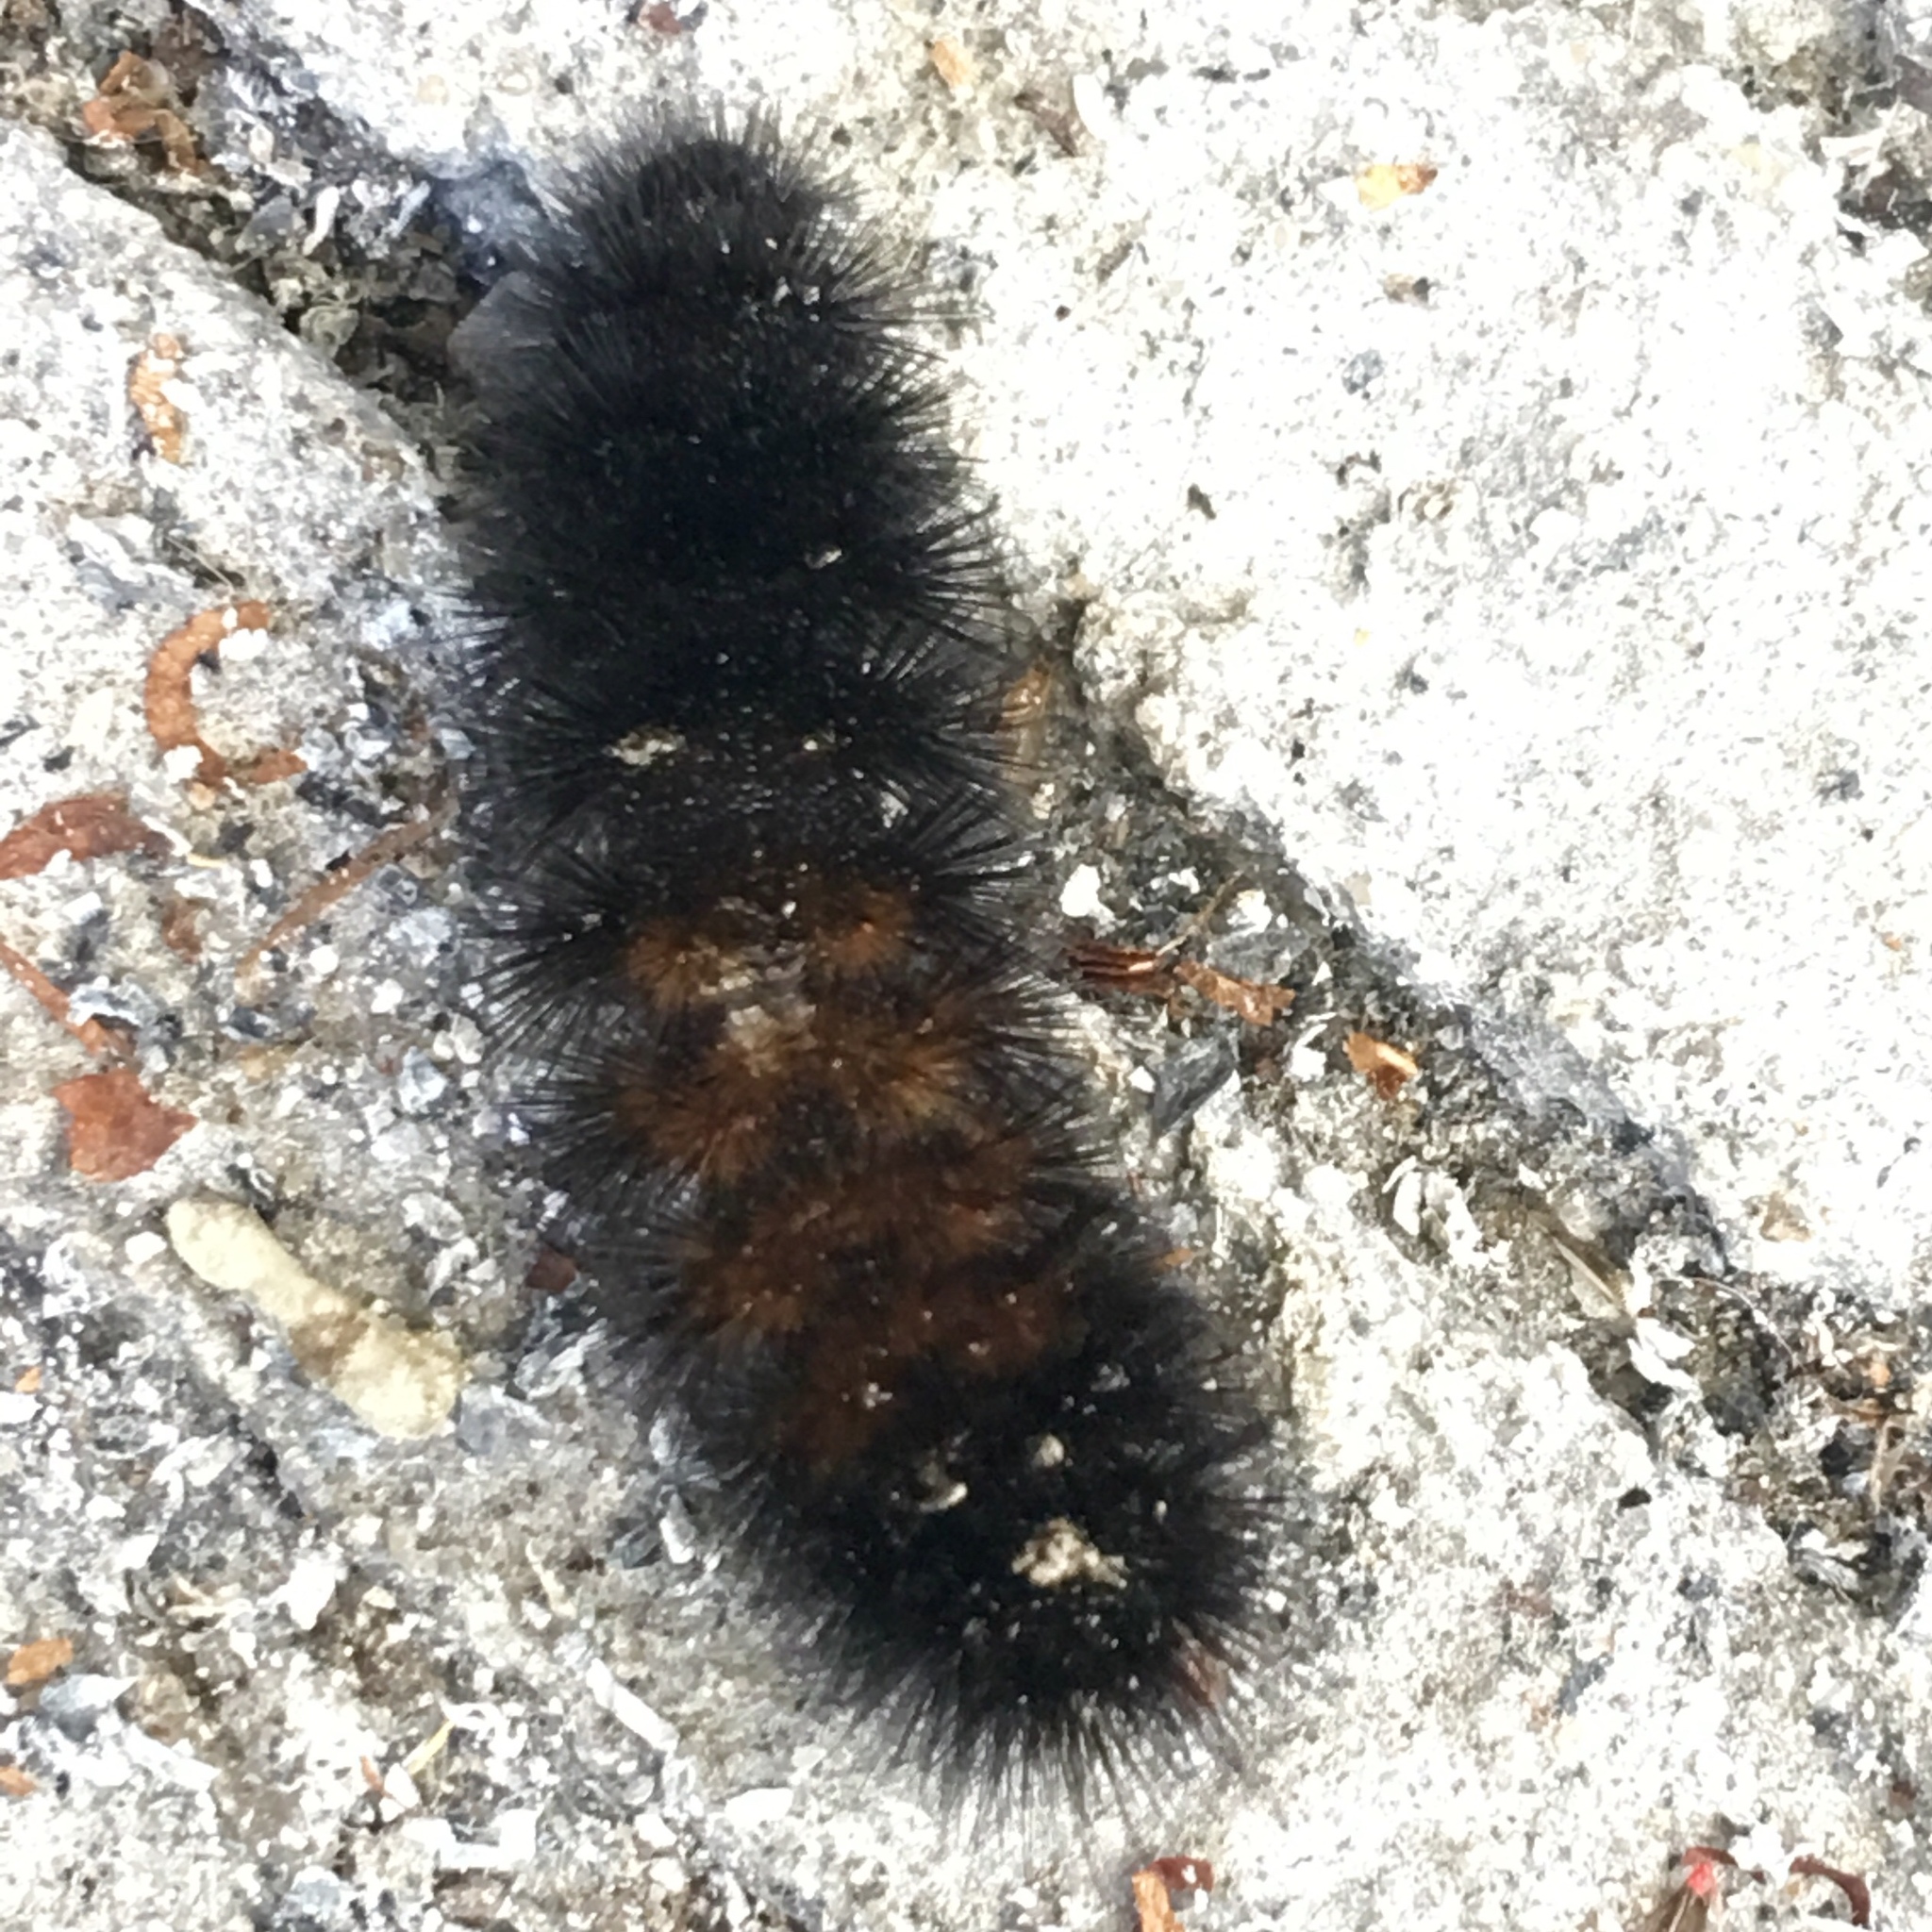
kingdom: Animalia
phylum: Arthropoda
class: Insecta
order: Lepidoptera
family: Erebidae
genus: Pyrrharctia
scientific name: Pyrrharctia isabella
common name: Isabella tiger moth
